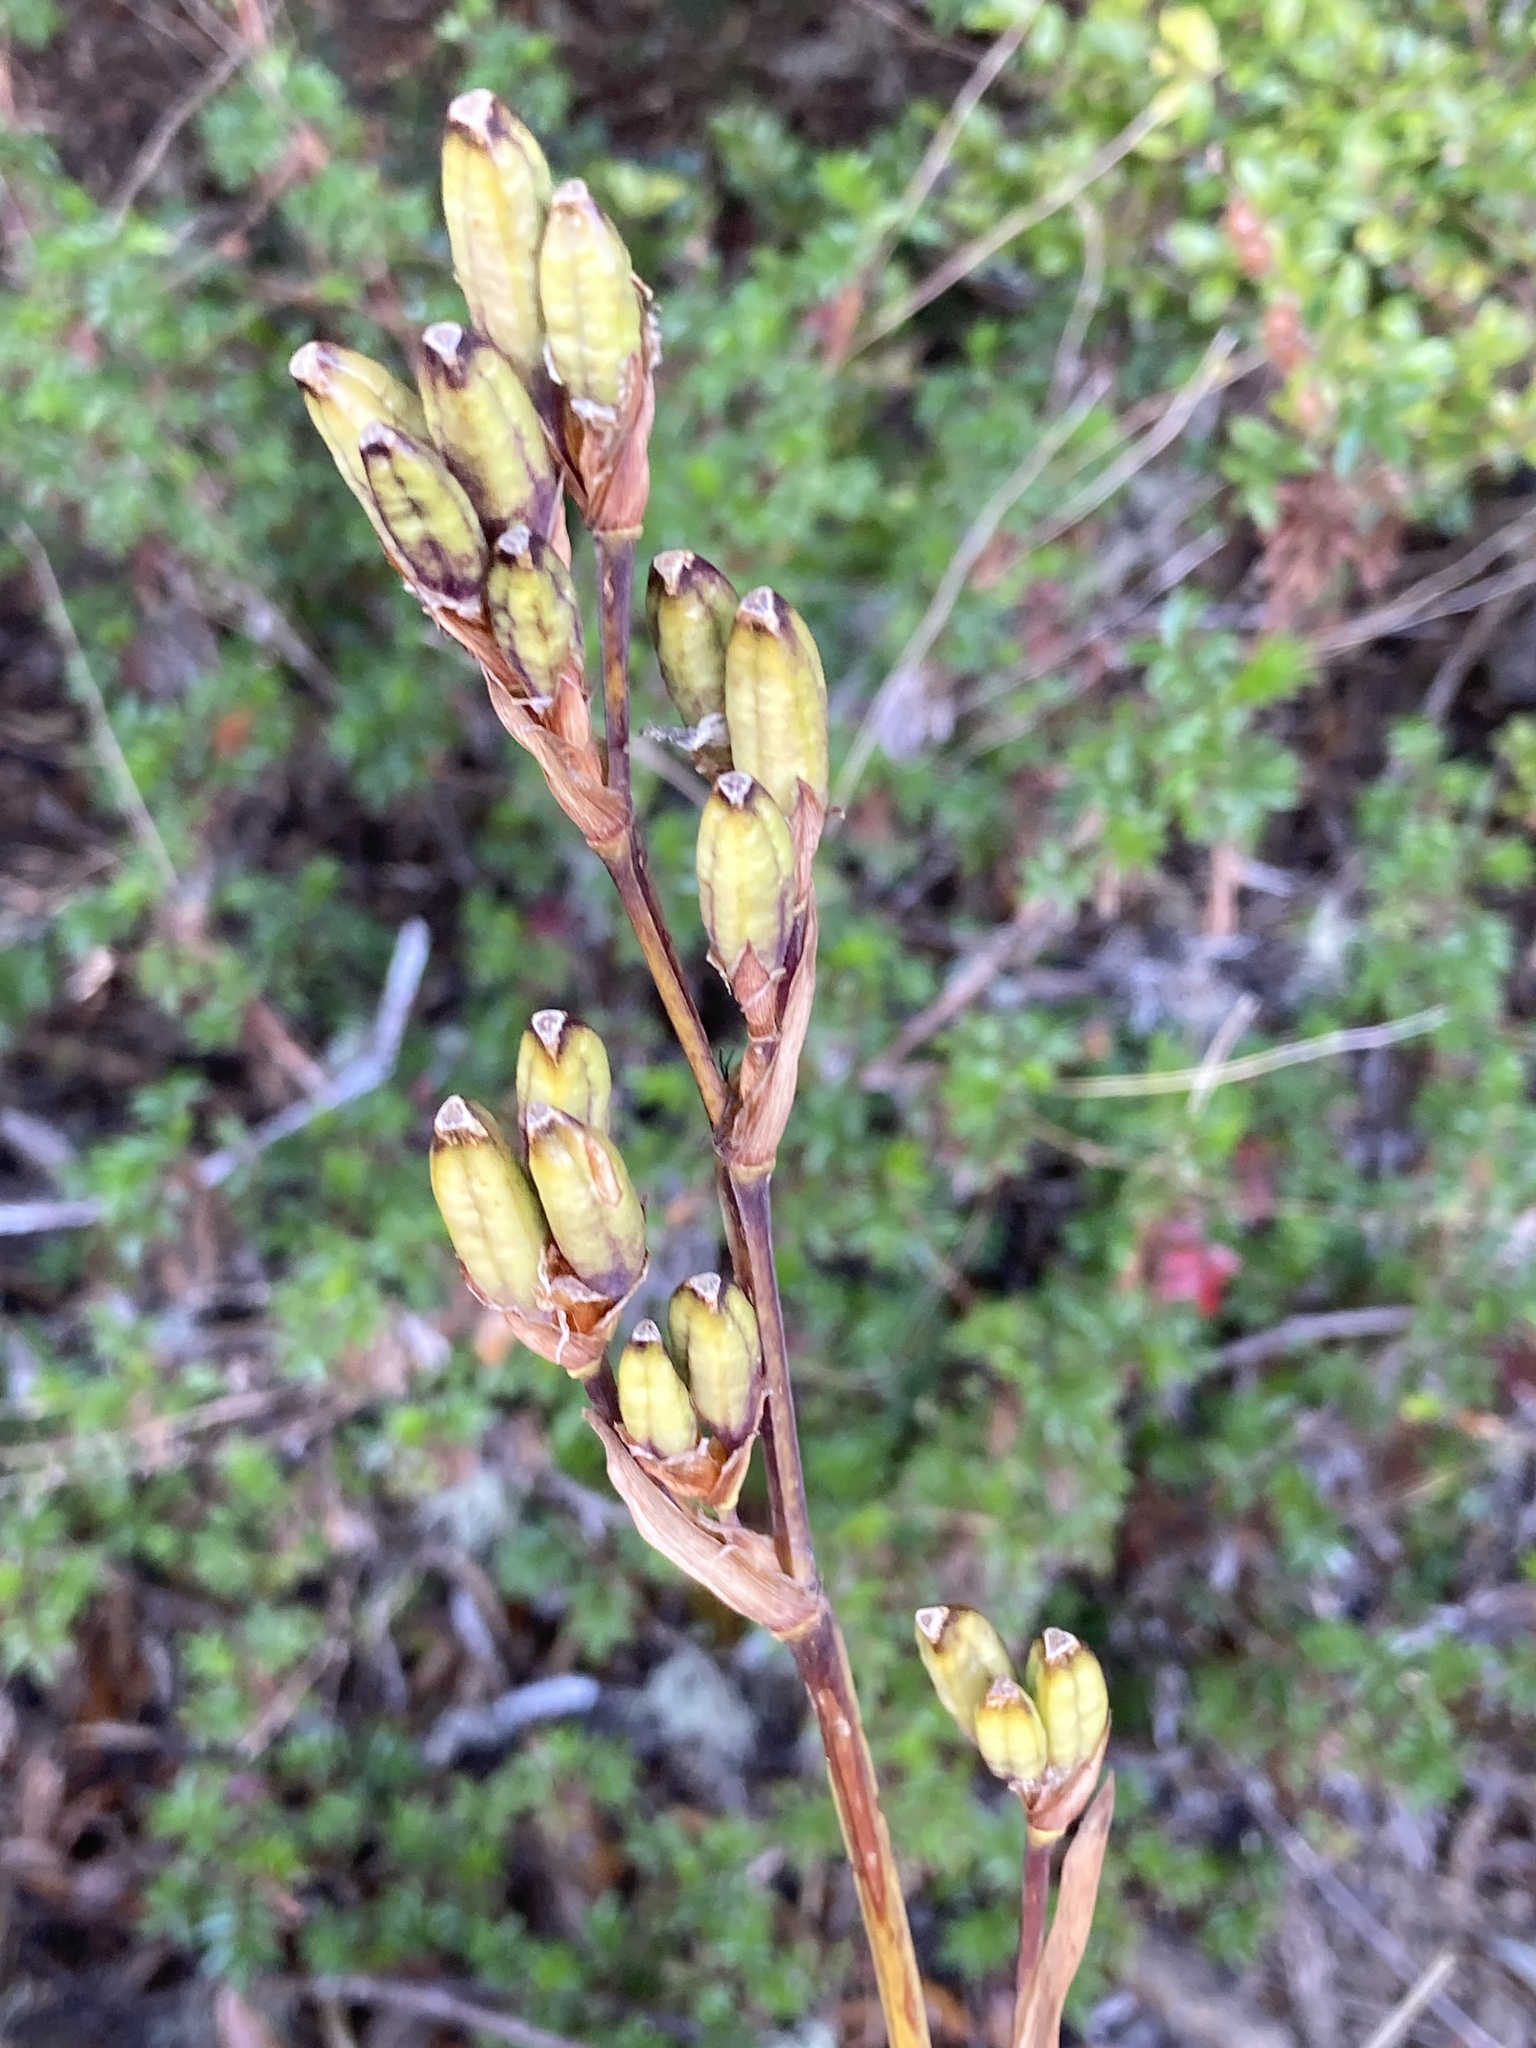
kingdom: Plantae
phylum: Tracheophyta
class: Liliopsida
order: Asparagales
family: Iridaceae
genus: Orthrosanthus
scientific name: Orthrosanthus chimboracensis
